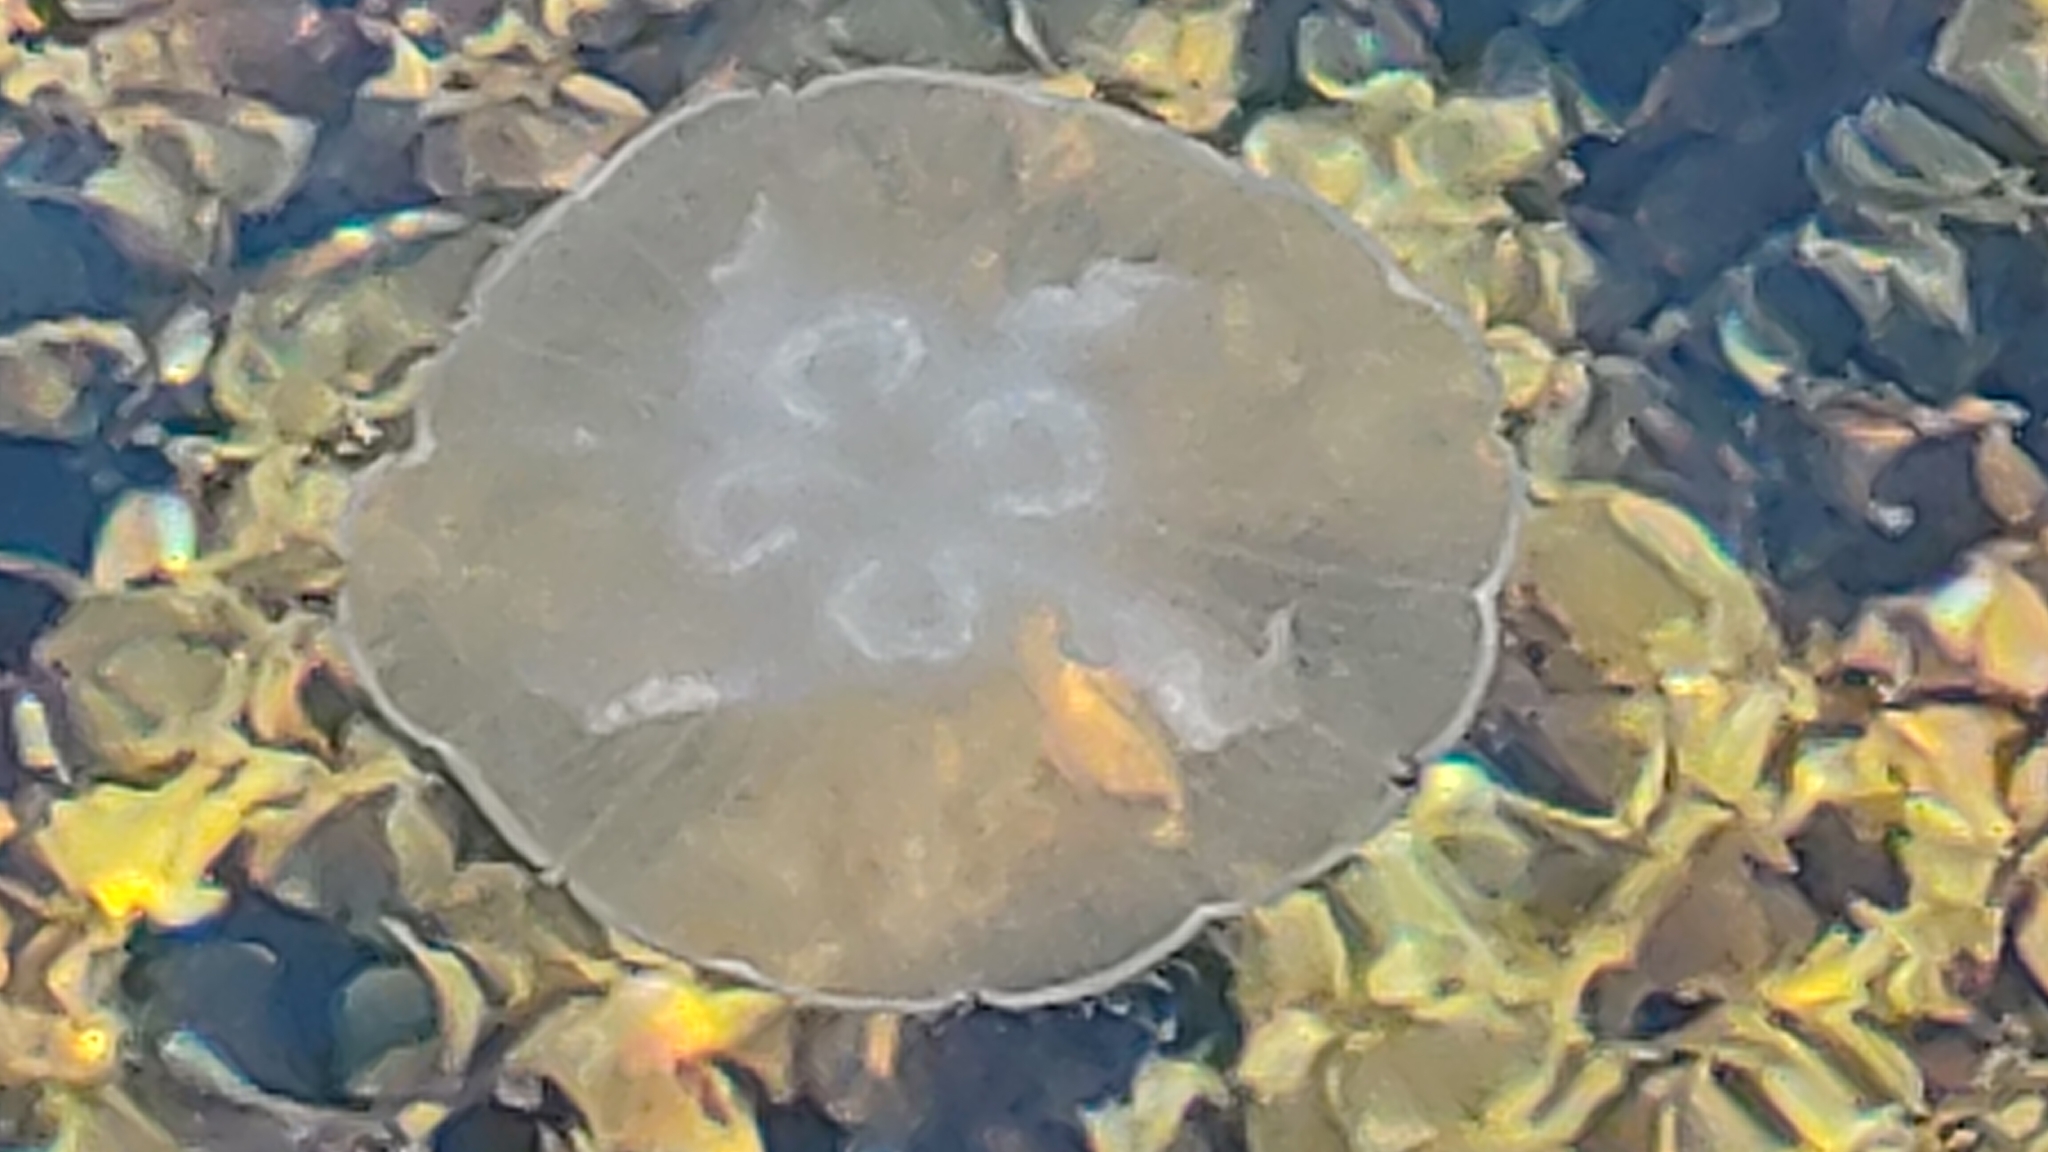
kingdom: Animalia
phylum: Cnidaria
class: Scyphozoa
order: Semaeostomeae
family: Ulmaridae
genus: Aurelia
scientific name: Aurelia aurita
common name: Moon jellyfish
